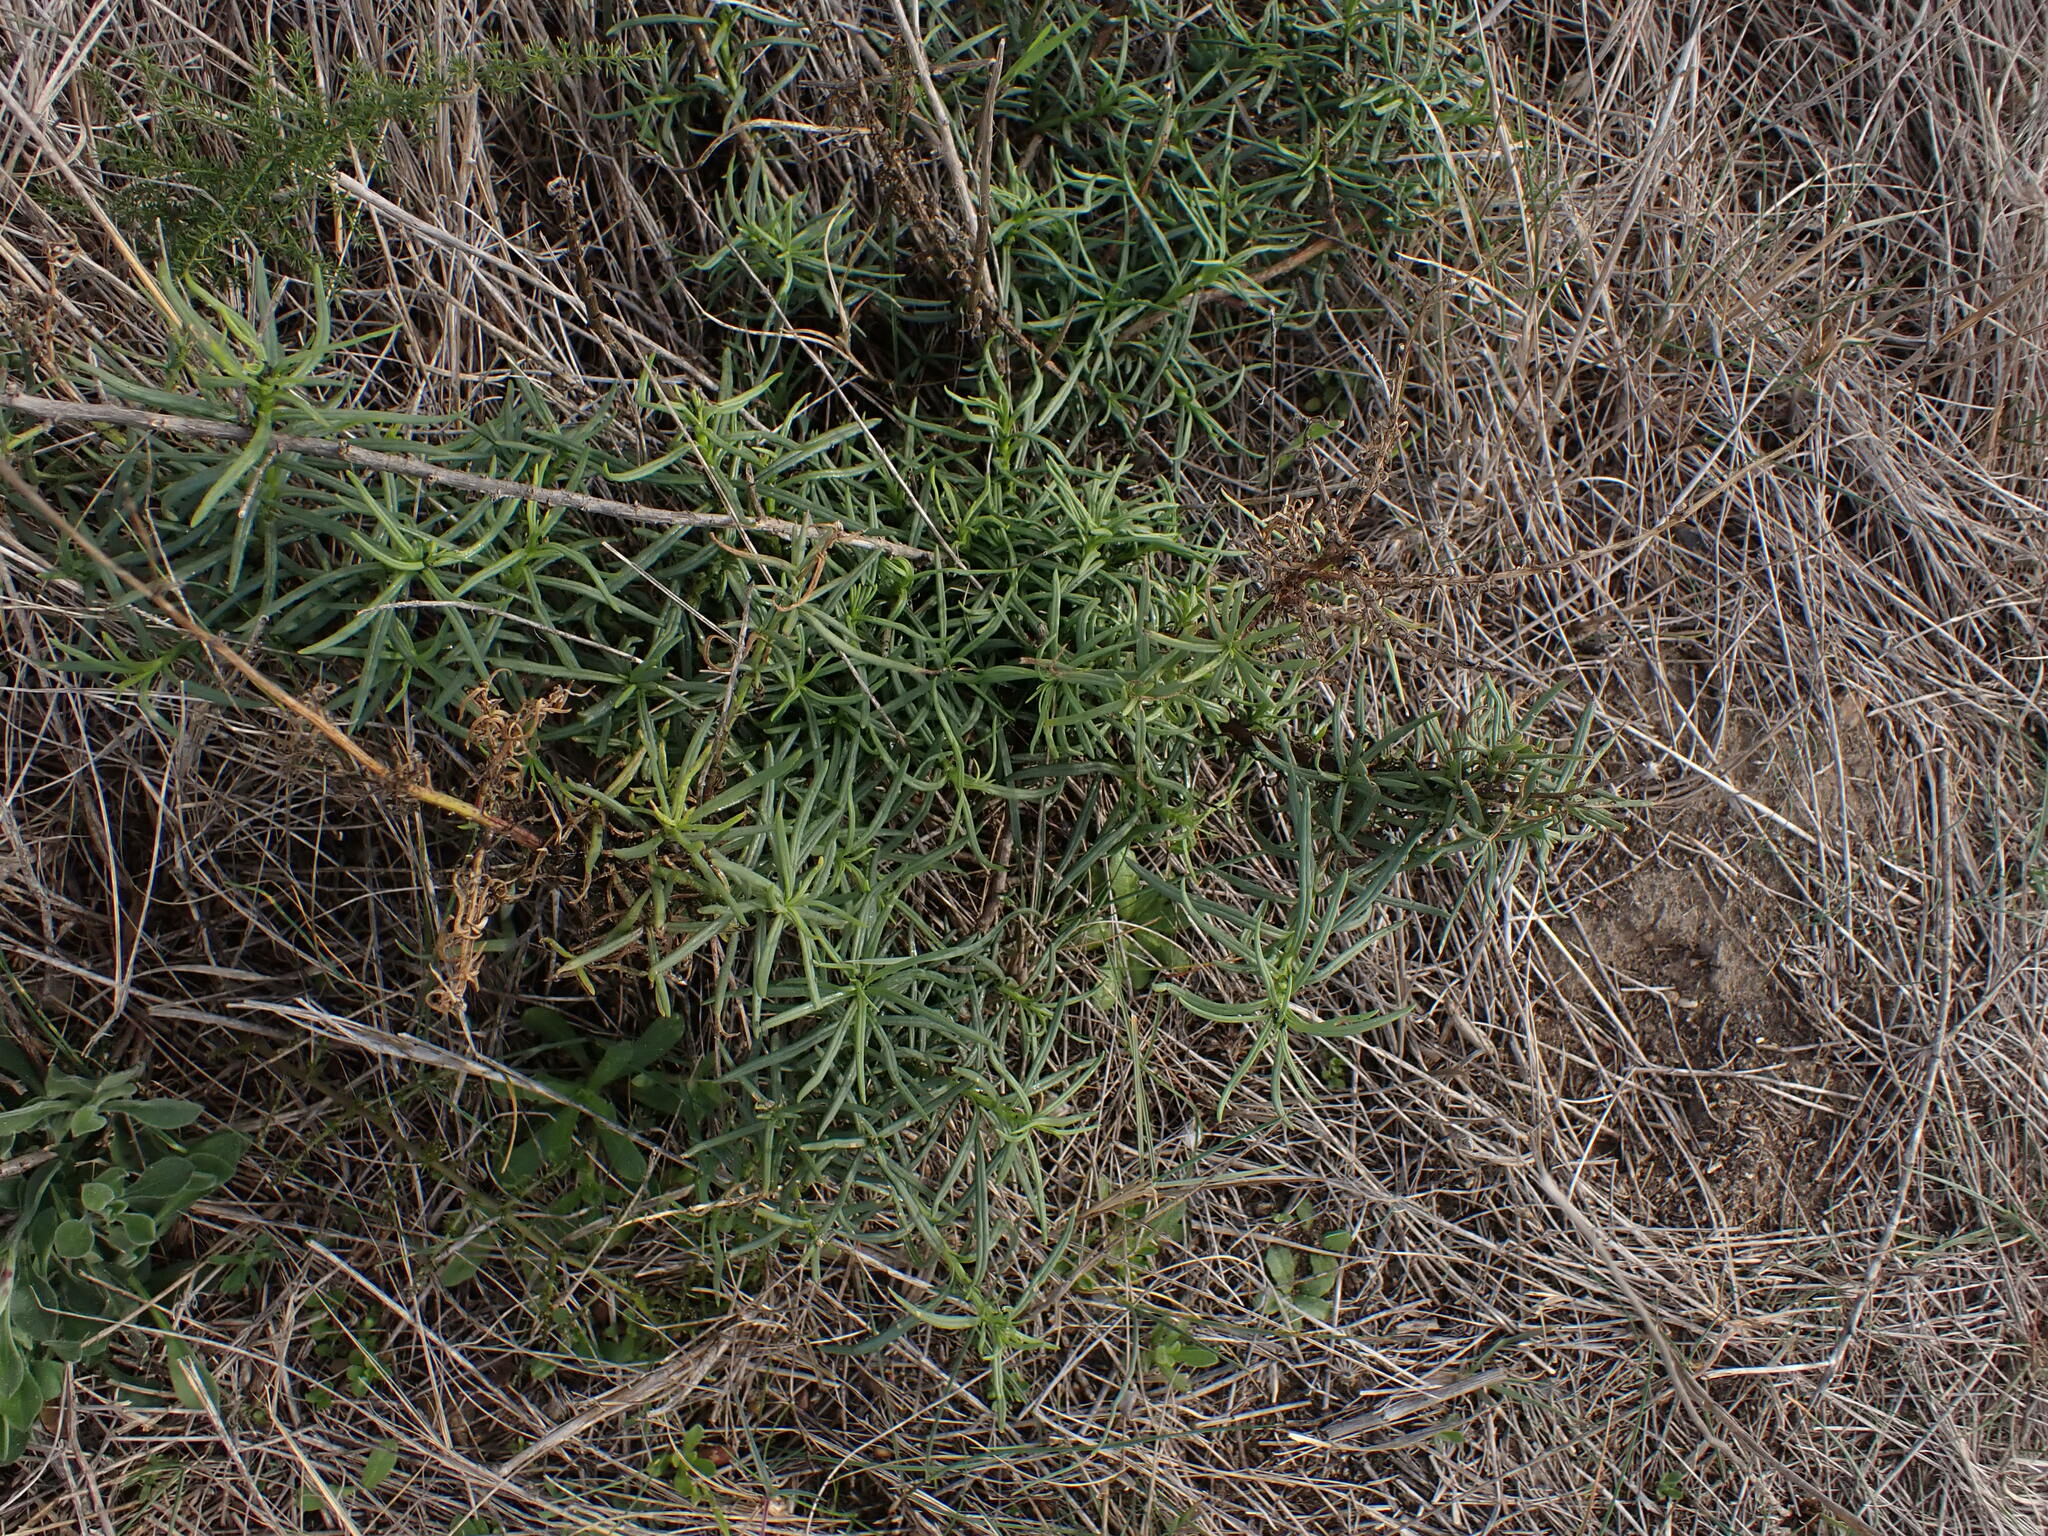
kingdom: Plantae
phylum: Tracheophyta
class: Magnoliopsida
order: Asterales
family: Asteraceae
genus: Senecio
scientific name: Senecio inaequidens
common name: Narrow-leaved ragwort
